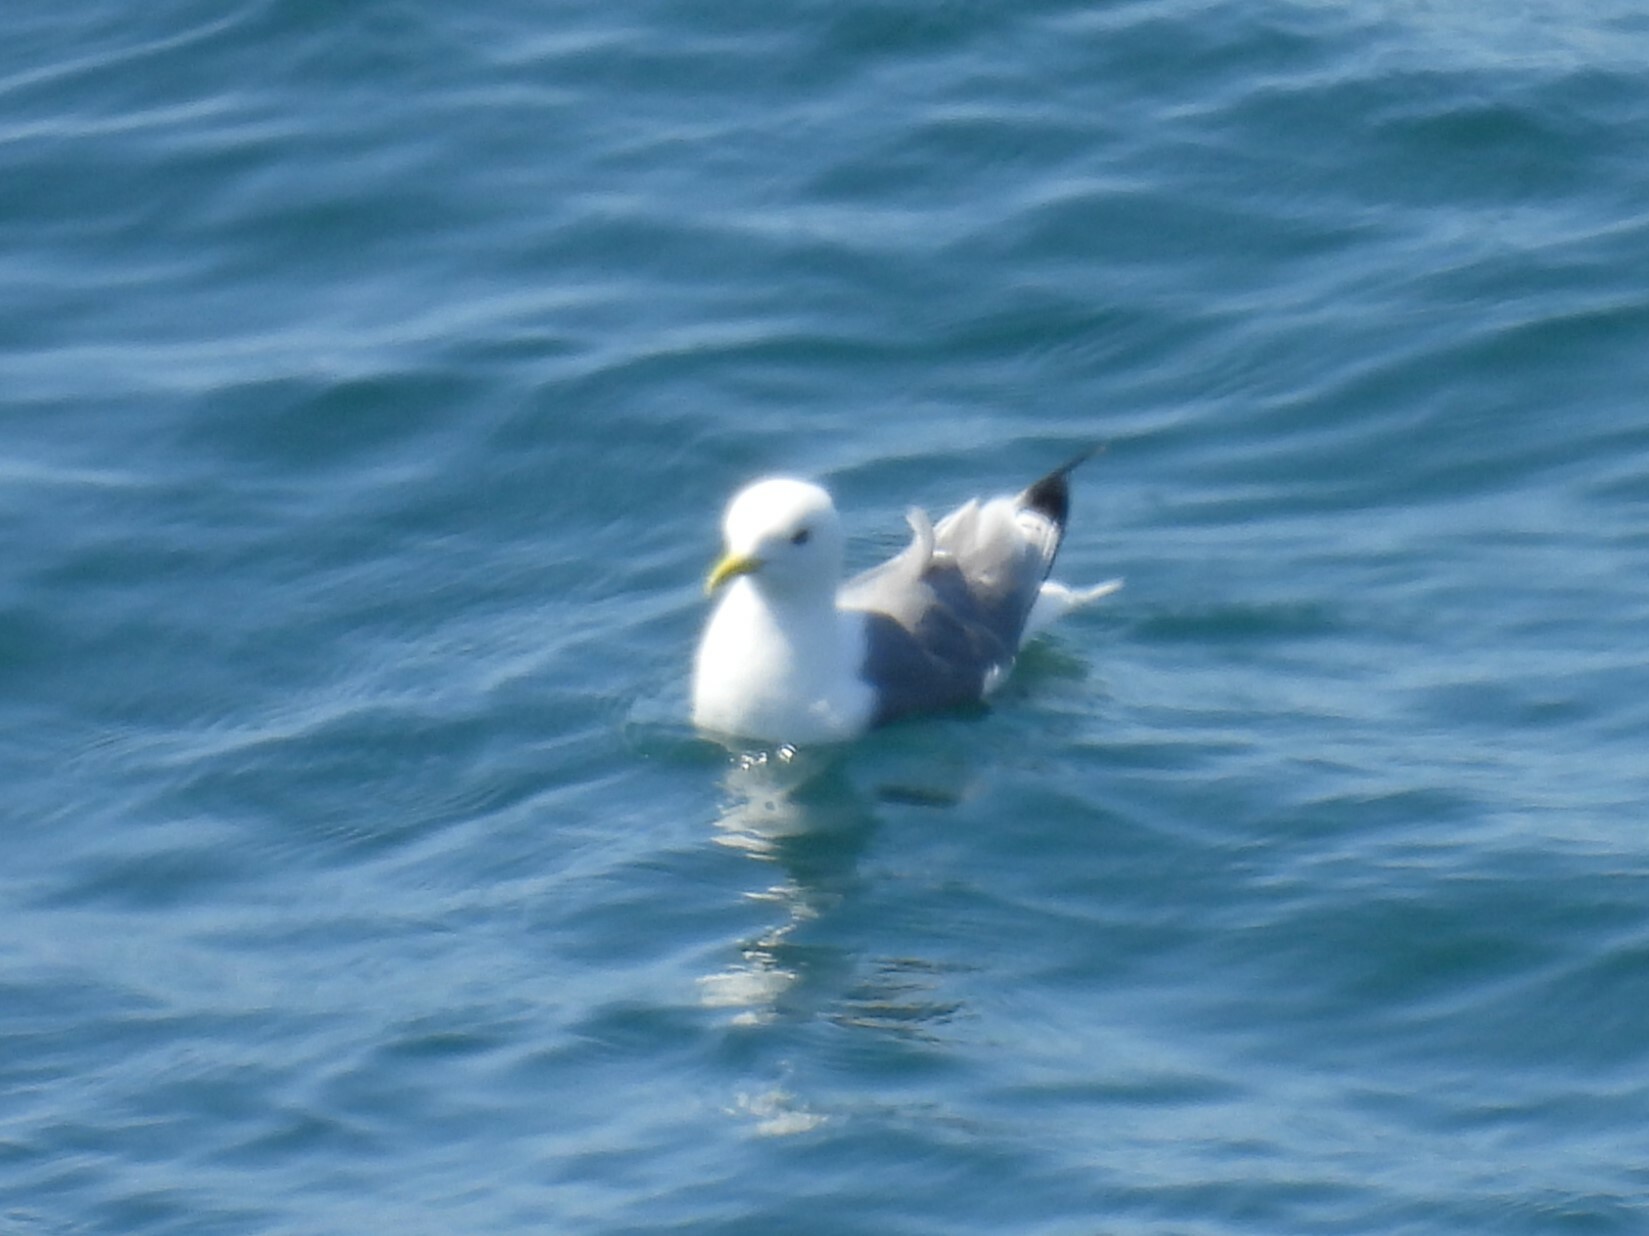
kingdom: Animalia
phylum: Chordata
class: Aves
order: Charadriiformes
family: Laridae
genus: Rissa
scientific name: Rissa tridactyla
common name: Black-legged kittiwake
